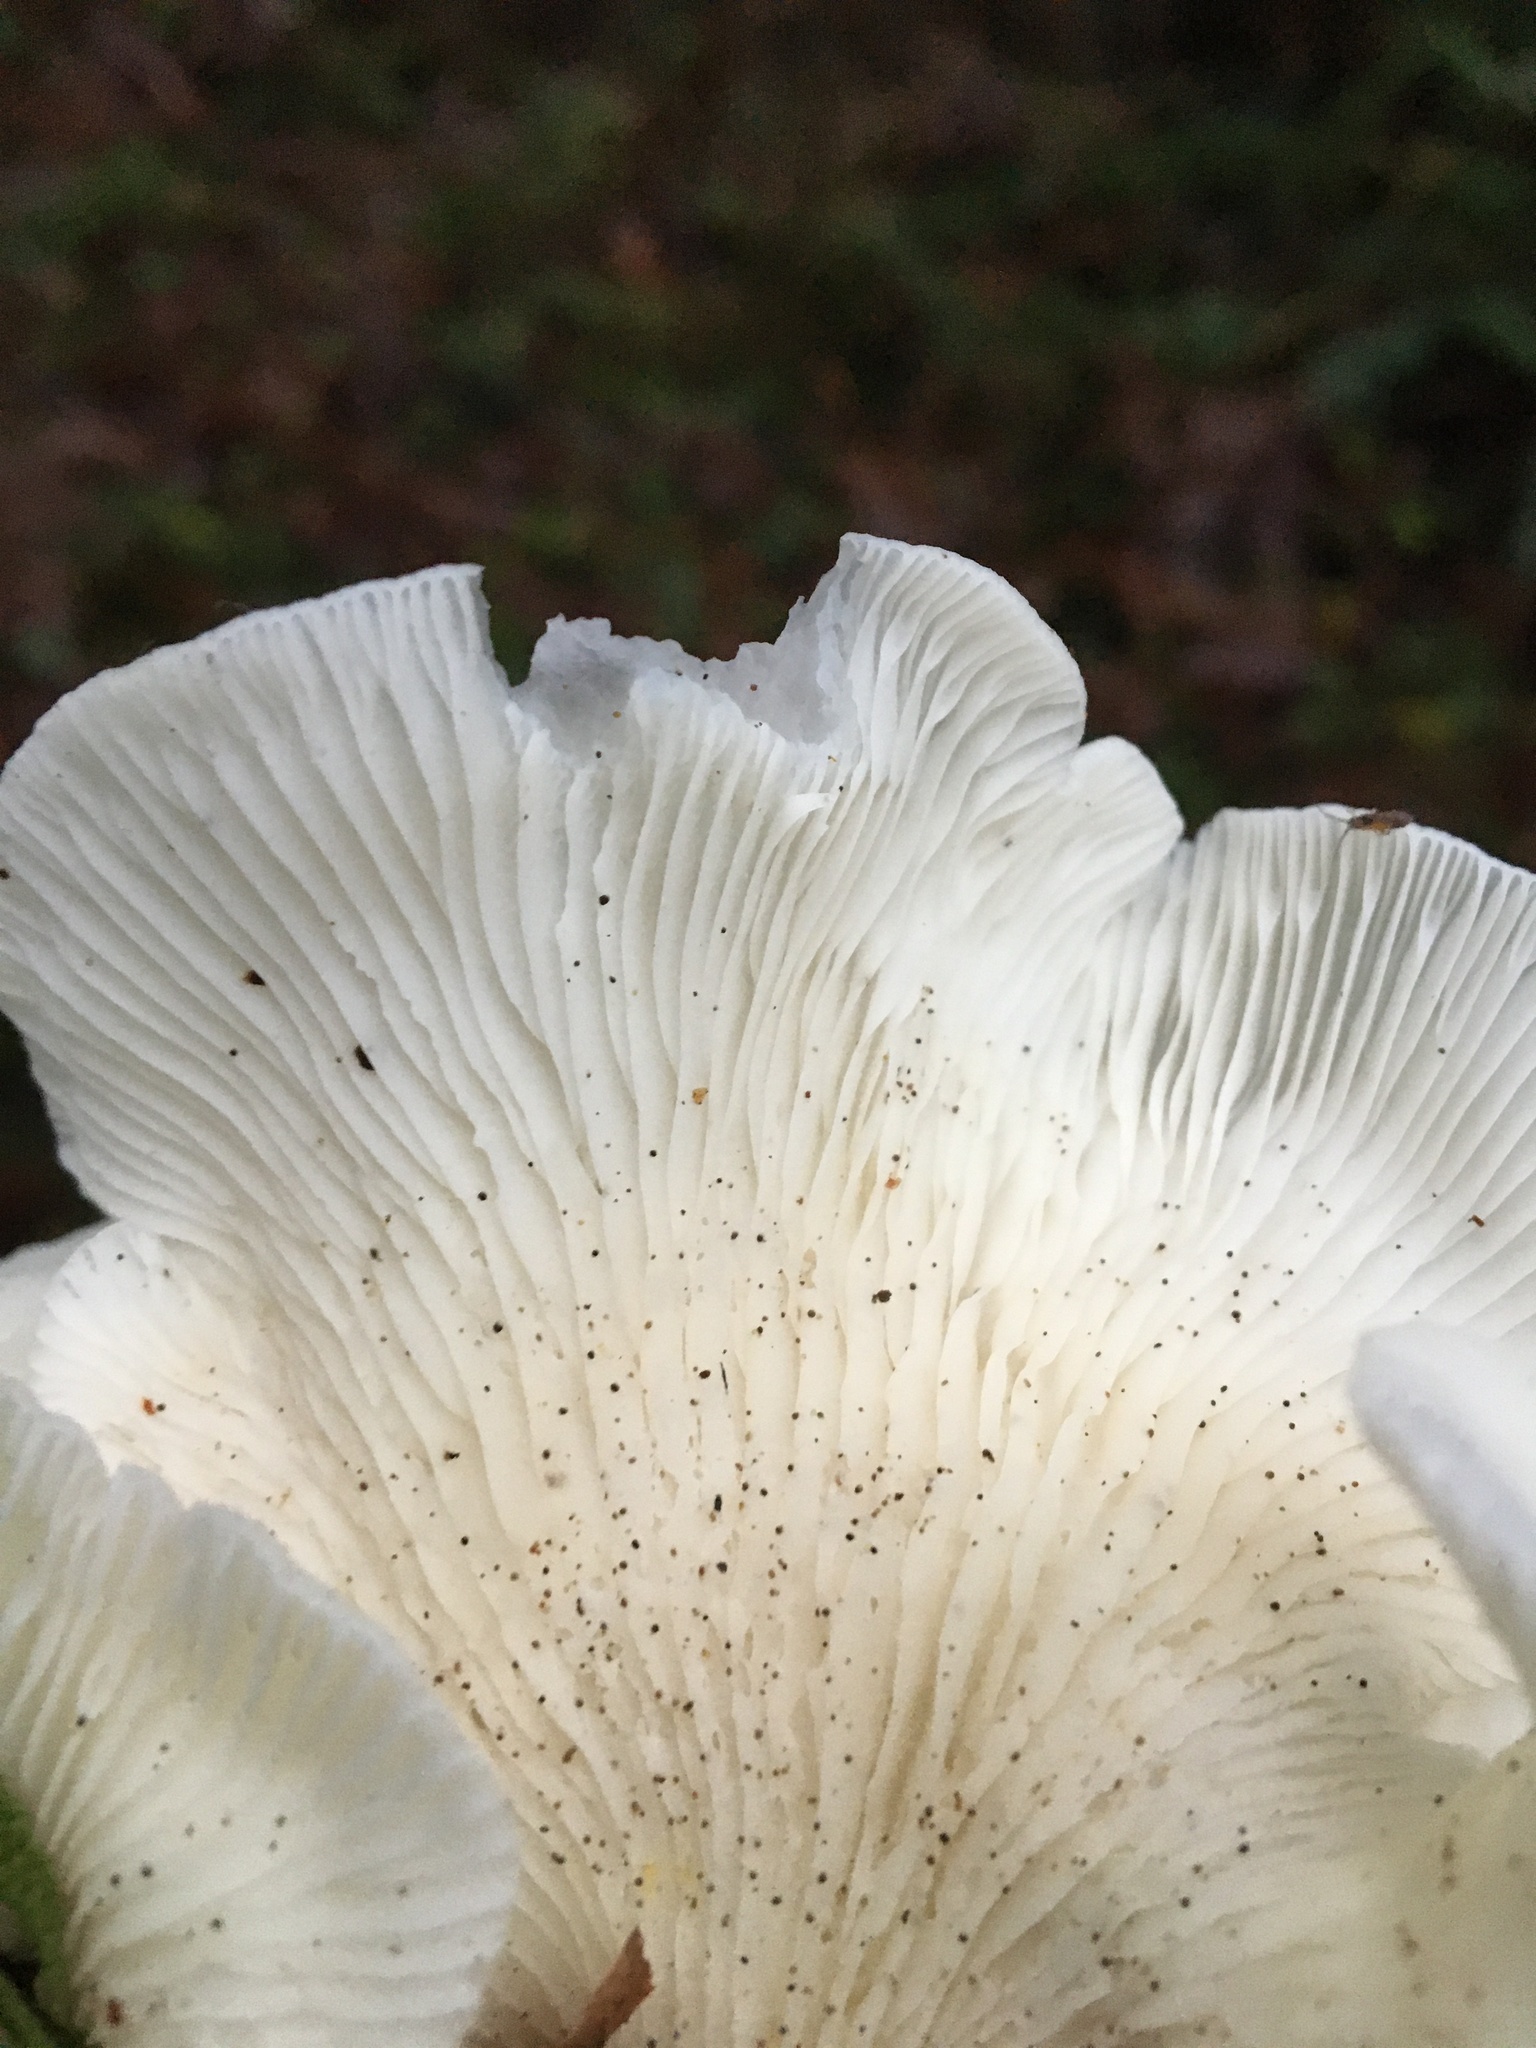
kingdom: Fungi
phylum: Basidiomycota
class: Agaricomycetes
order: Agaricales
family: Marasmiaceae
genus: Pleurocybella
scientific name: Pleurocybella porrigens
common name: Angel's wings
